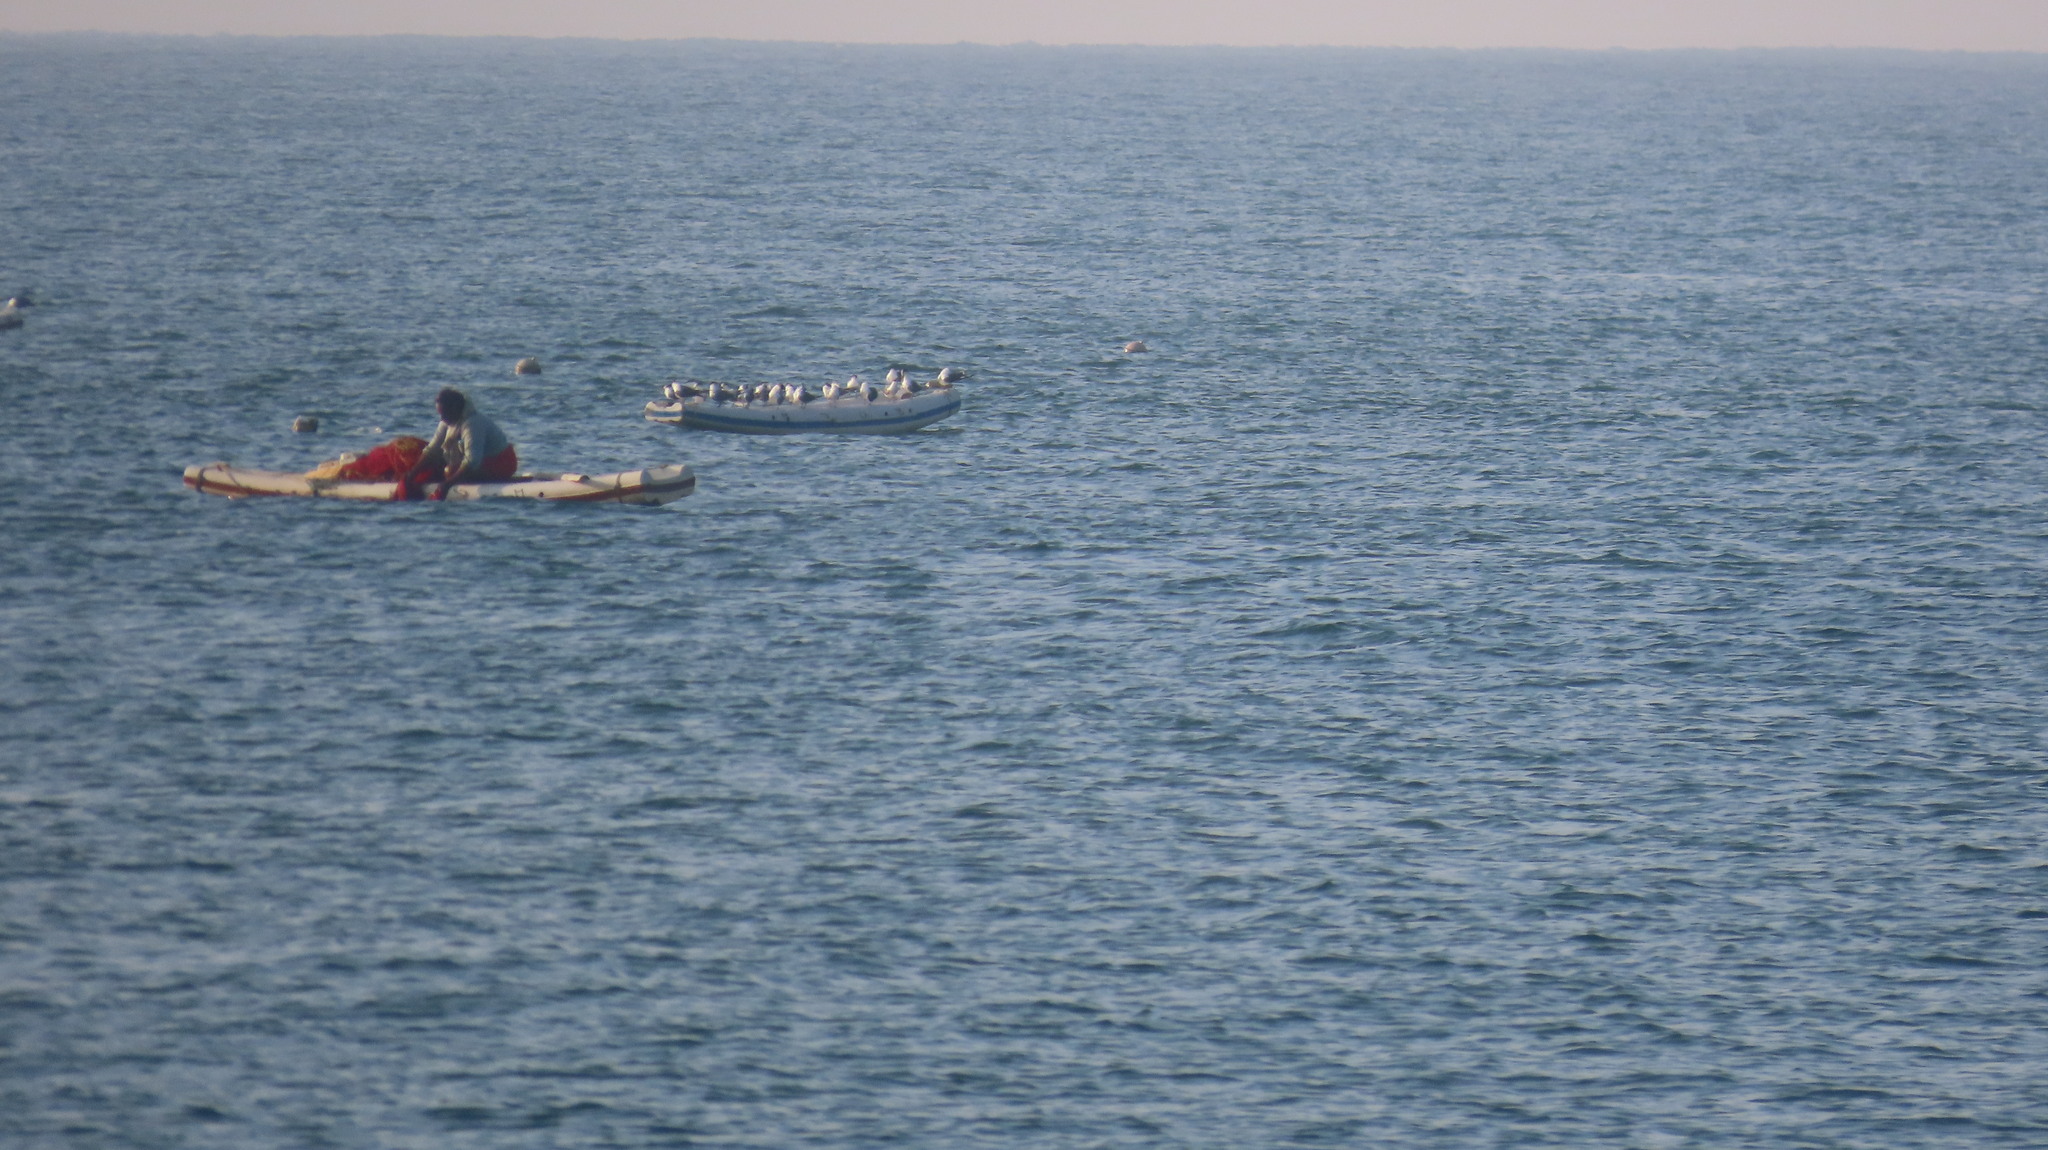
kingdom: Animalia
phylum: Chordata
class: Aves
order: Charadriiformes
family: Laridae
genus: Thalasseus
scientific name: Thalasseus bengalensis
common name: Lesser crested tern
